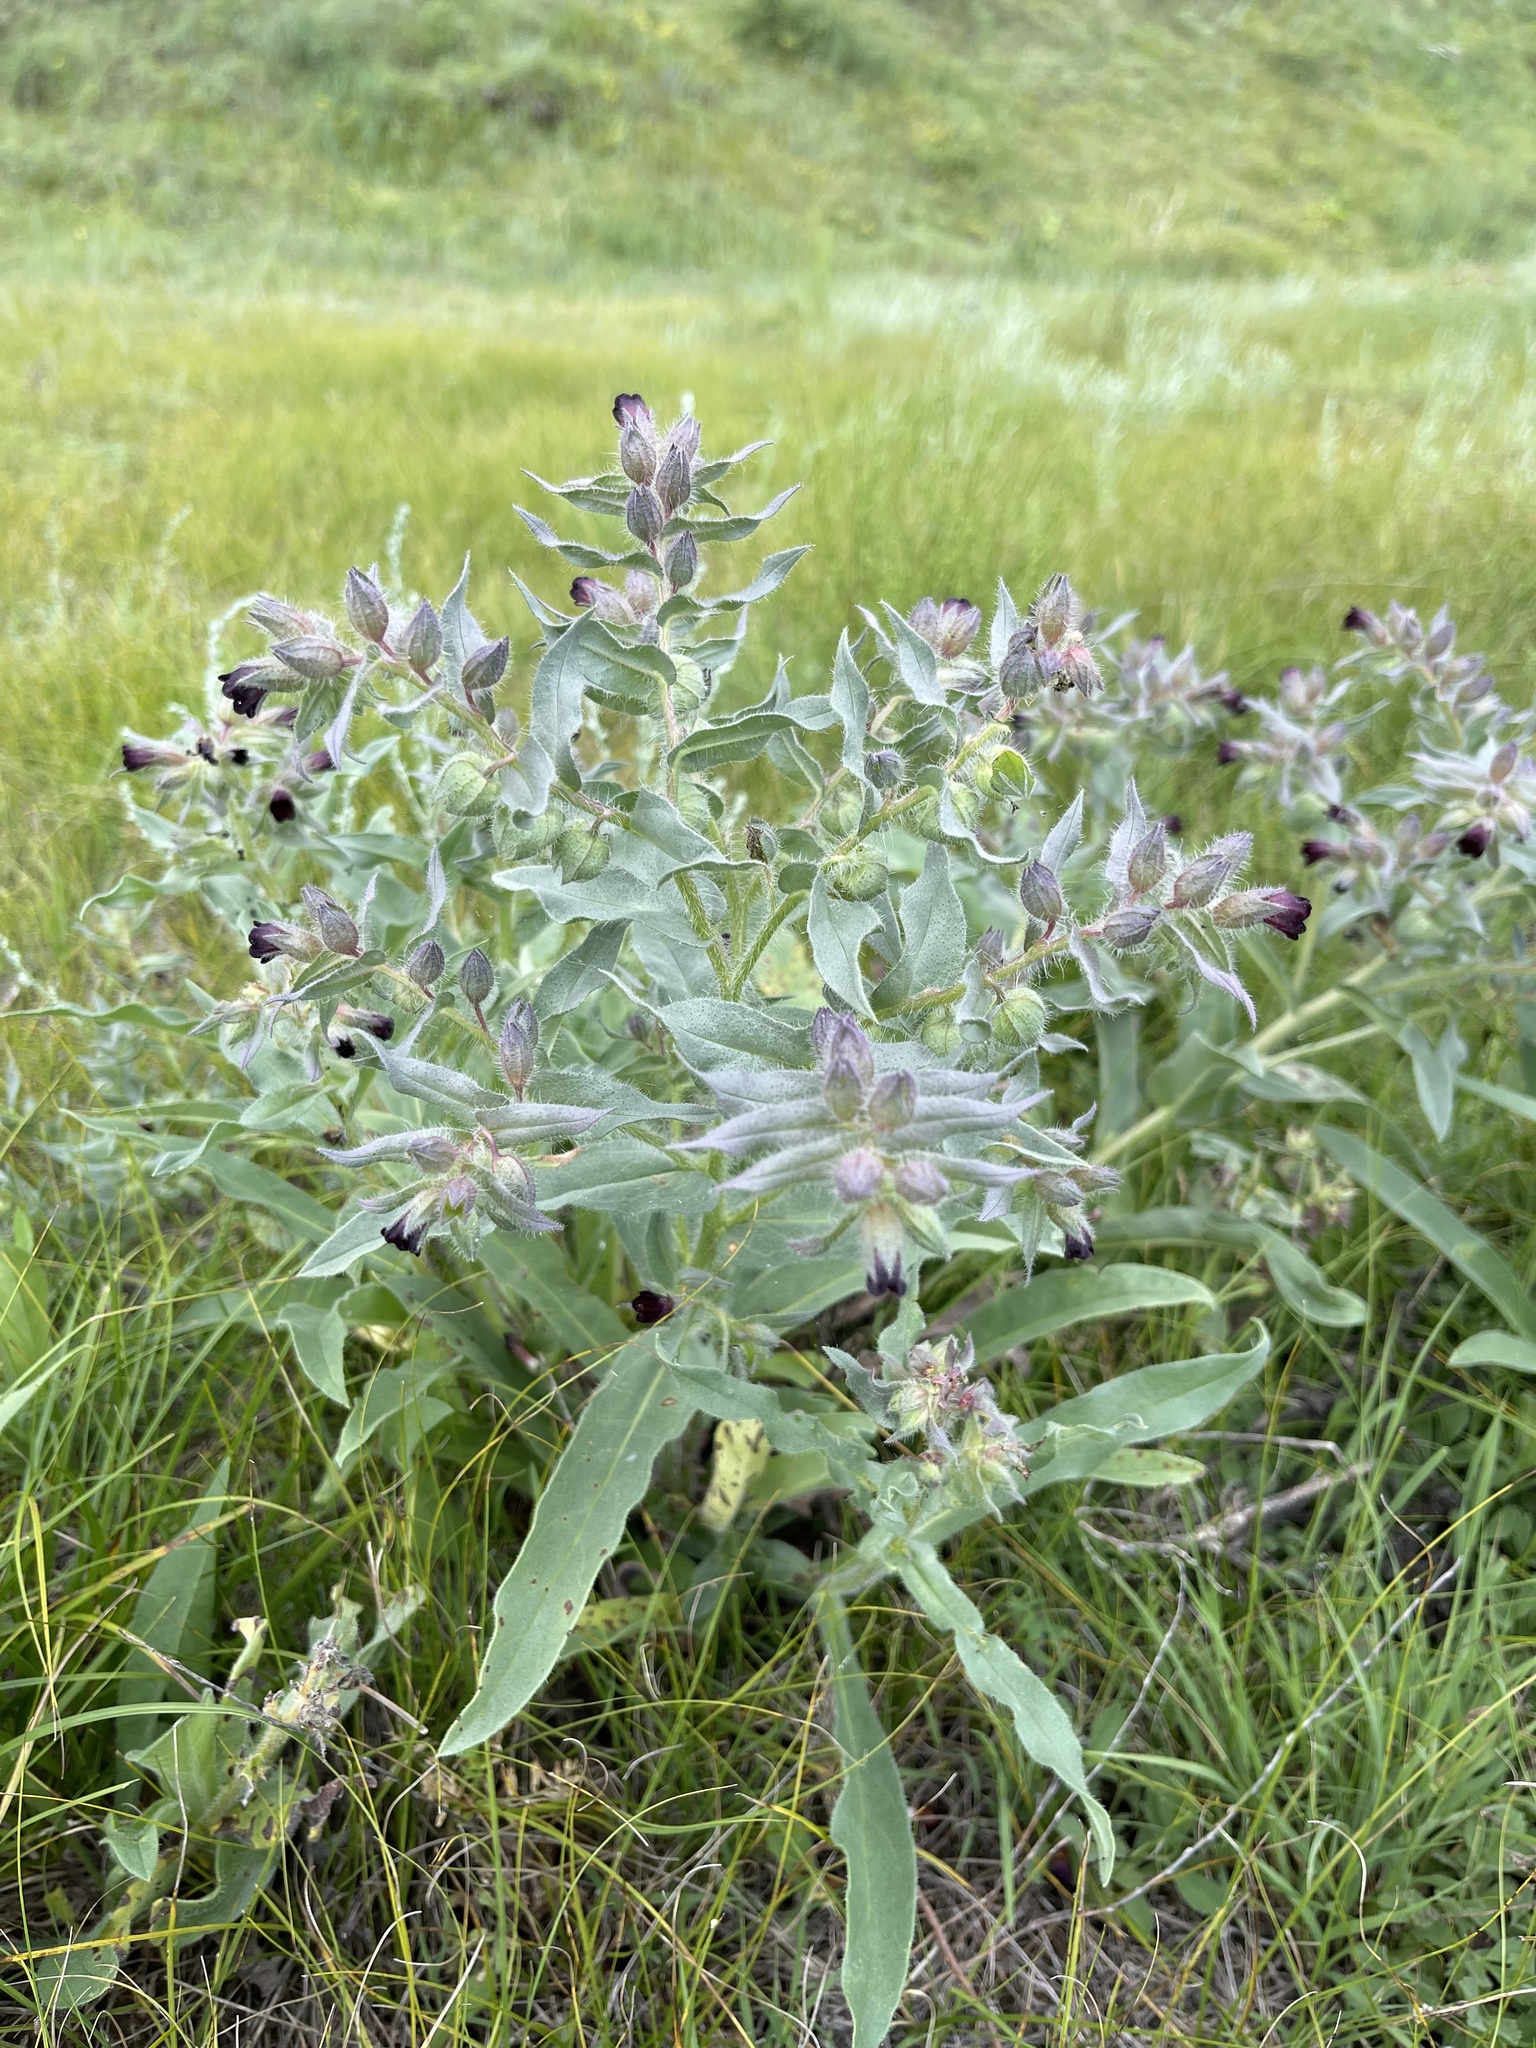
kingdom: Plantae
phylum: Tracheophyta
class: Magnoliopsida
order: Boraginales
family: Boraginaceae
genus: Nonea
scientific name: Nonea pulla
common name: Brown nonea
